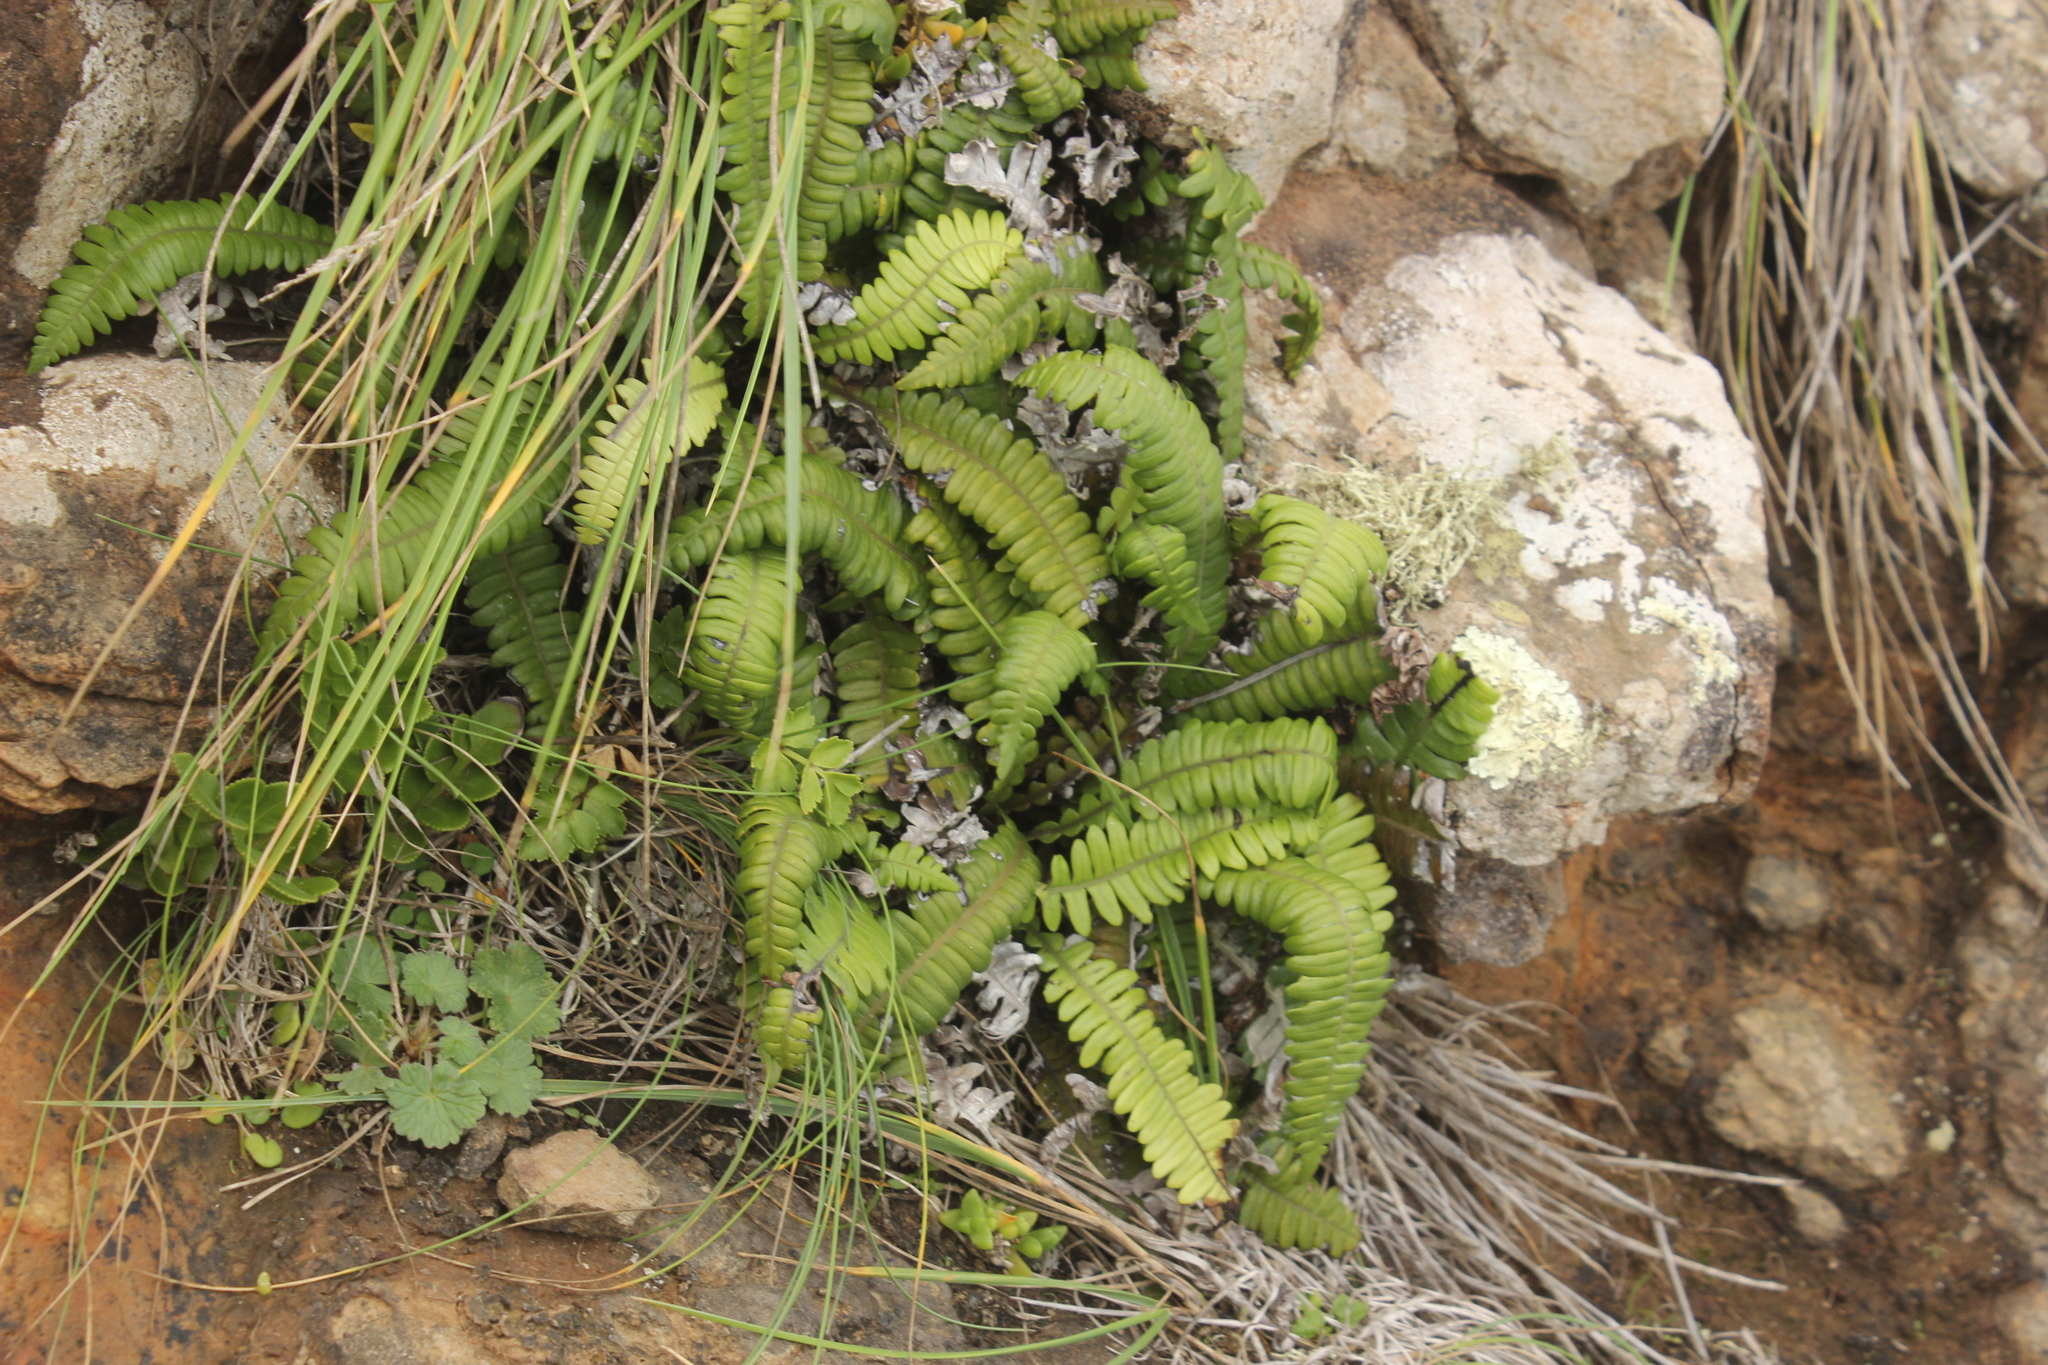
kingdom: Plantae
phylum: Tracheophyta
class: Polypodiopsida
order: Polypodiales
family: Blechnaceae
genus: Austroblechnum
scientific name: Austroblechnum durum
